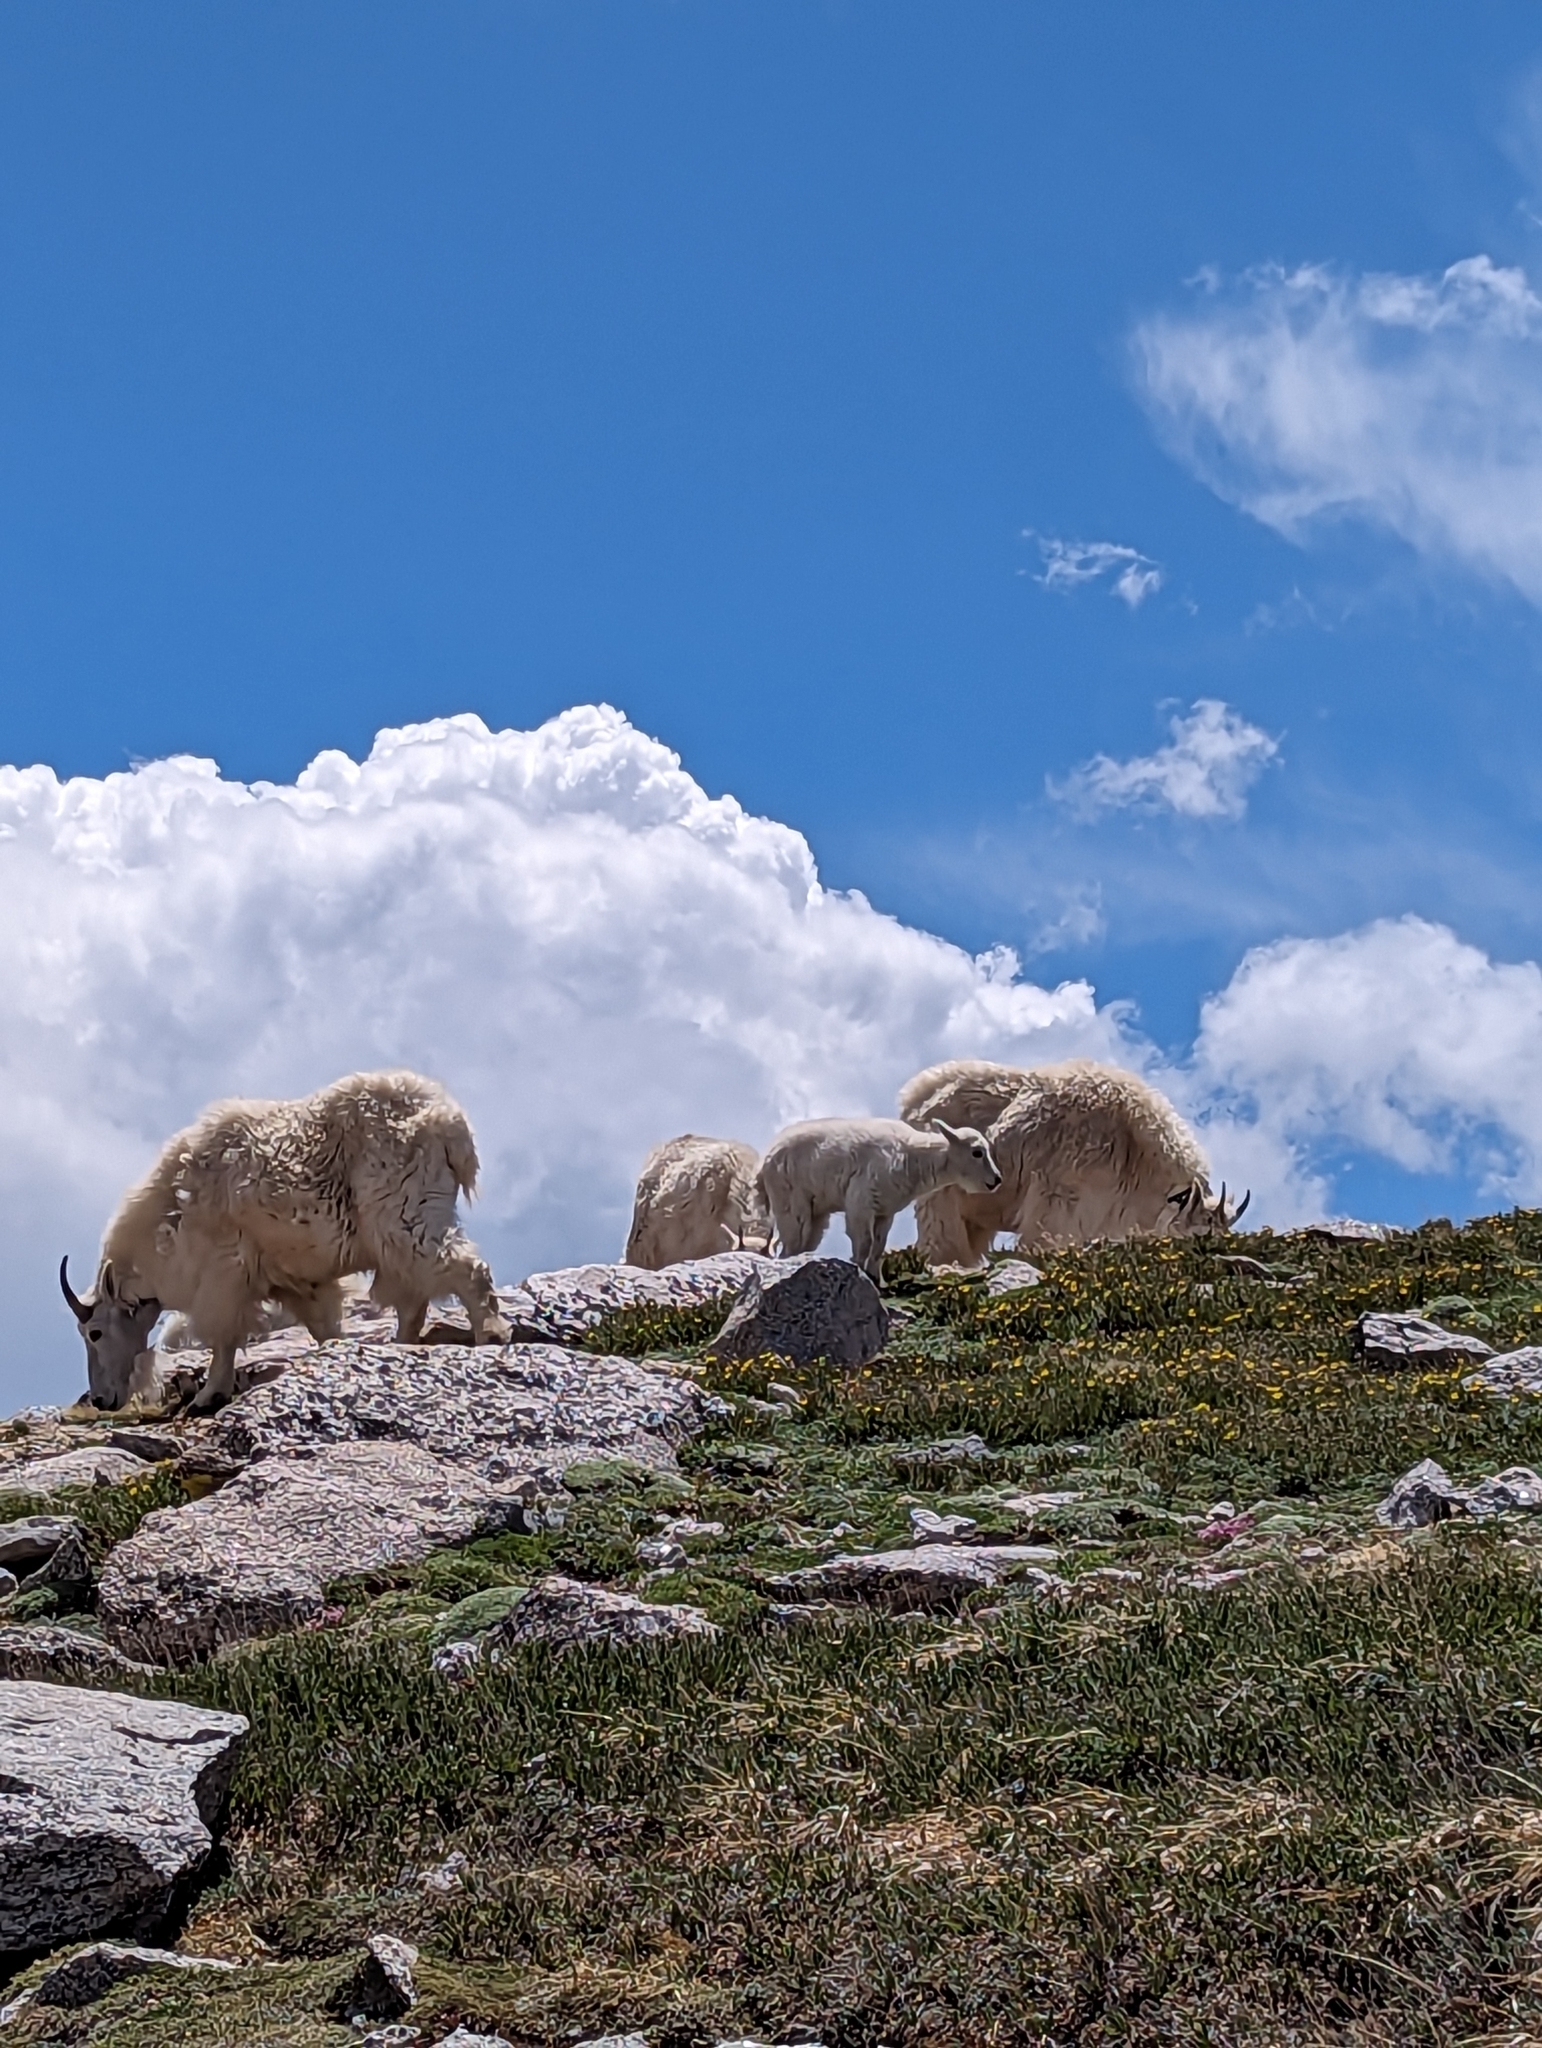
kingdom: Animalia
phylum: Chordata
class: Mammalia
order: Artiodactyla
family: Bovidae
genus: Oreamnos
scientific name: Oreamnos americanus
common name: Mountain goat
